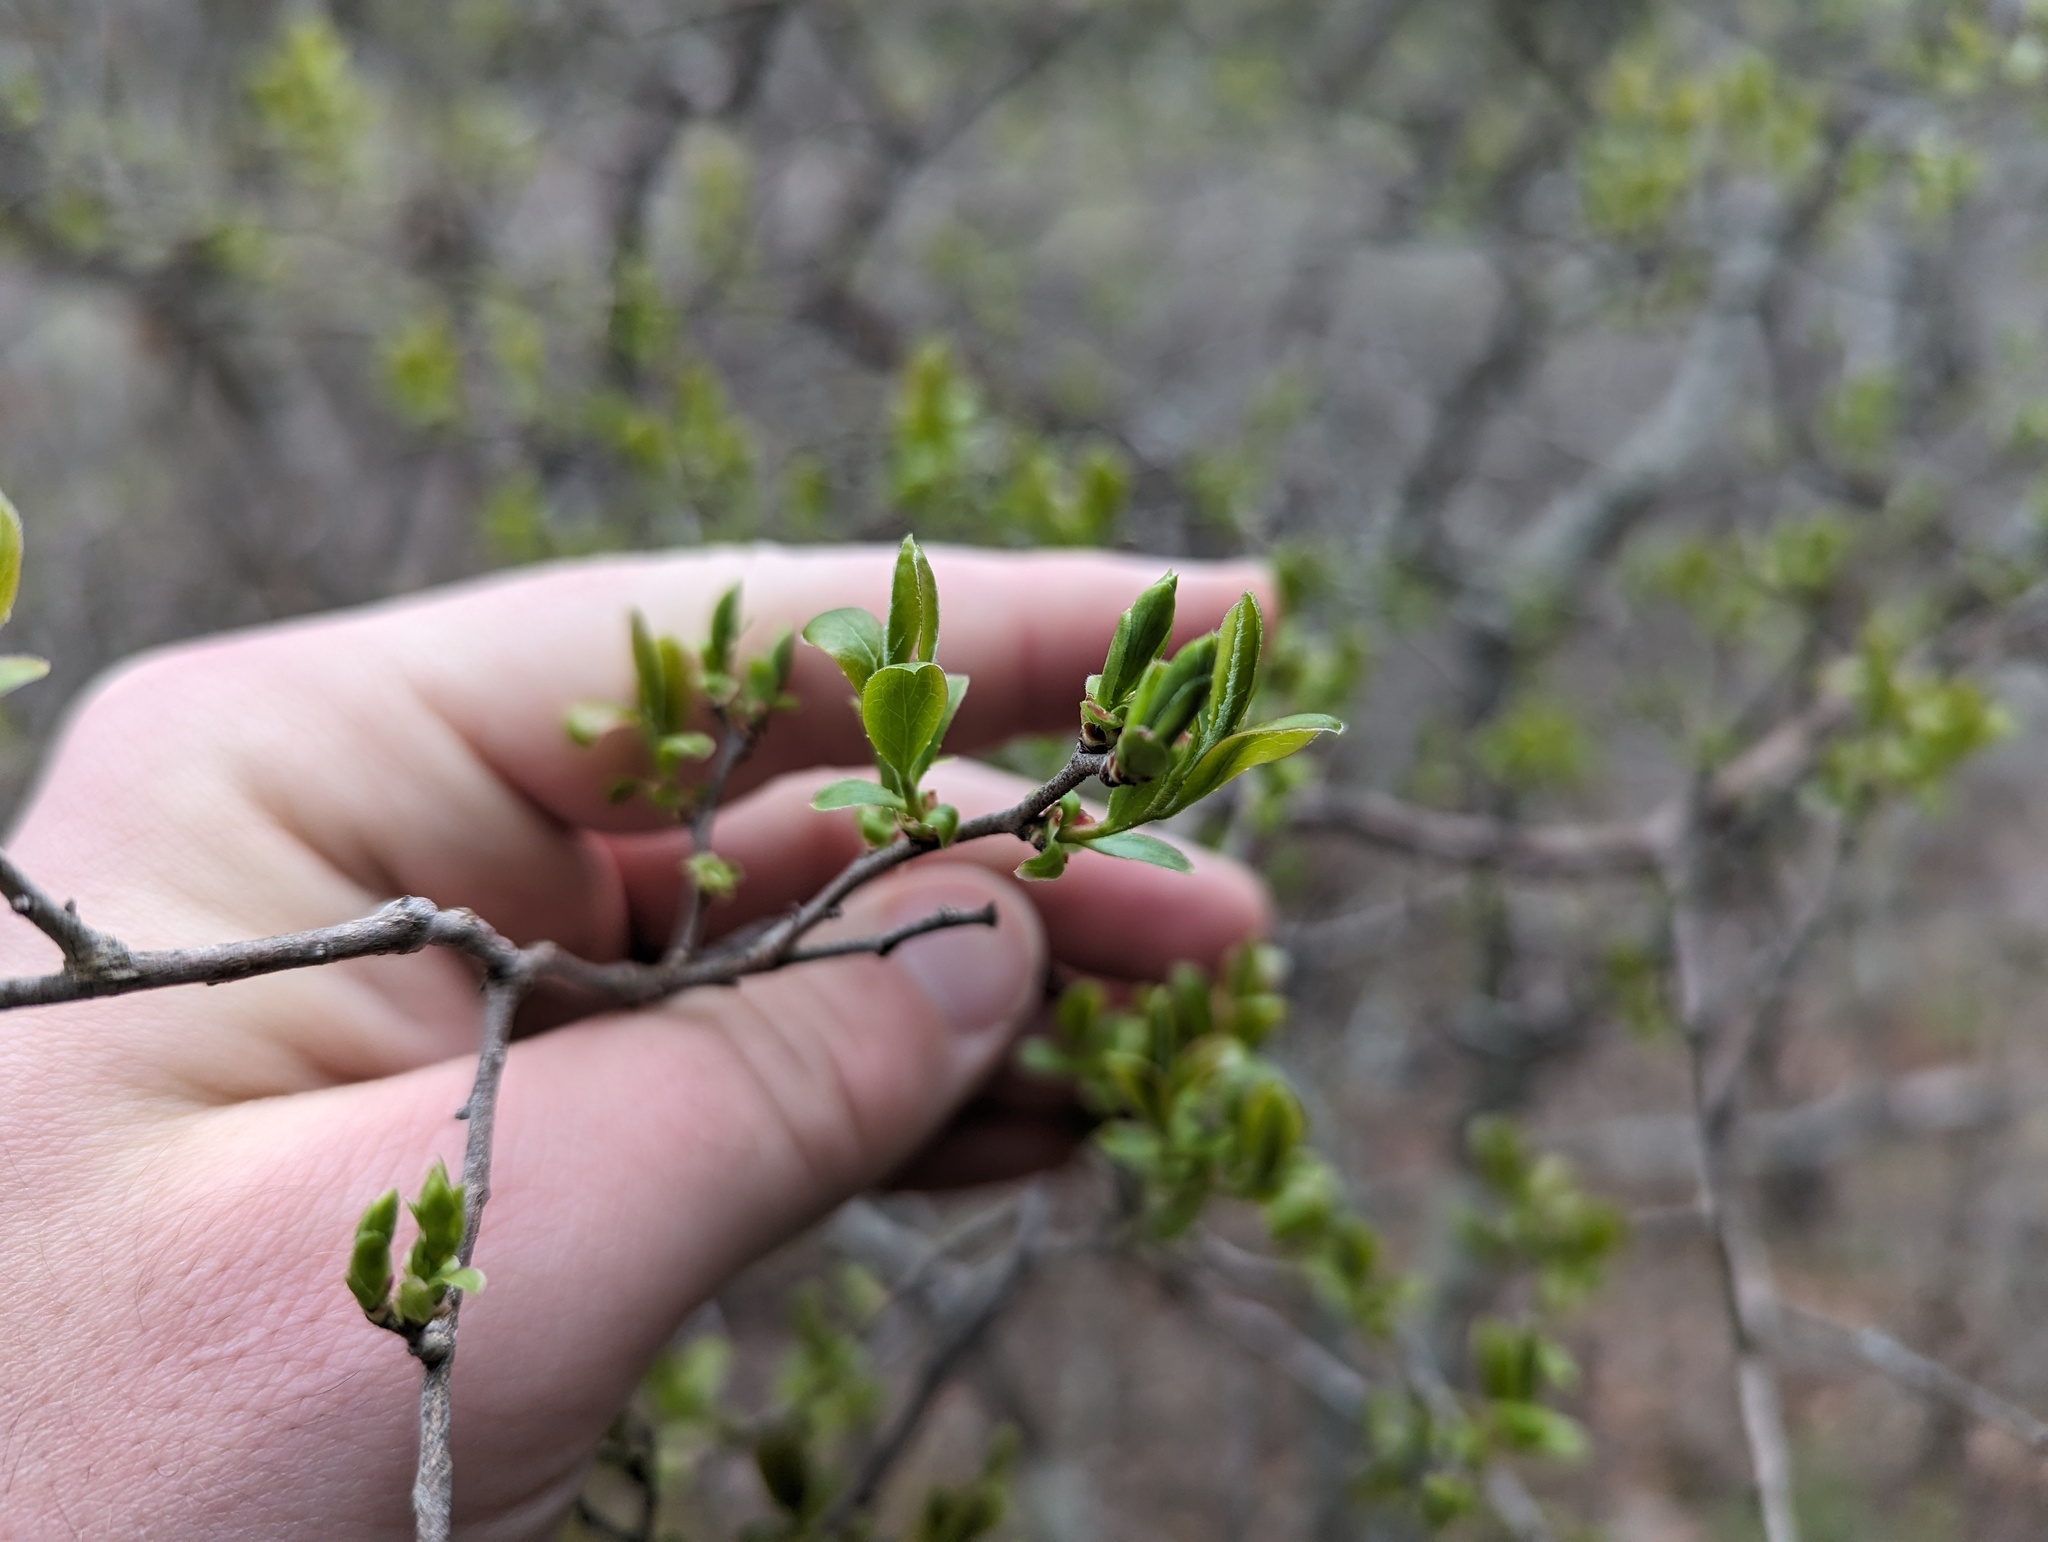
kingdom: Plantae
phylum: Tracheophyta
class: Magnoliopsida
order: Ericales
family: Ericaceae
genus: Vaccinium
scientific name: Vaccinium arboreum
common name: Farkleberry
